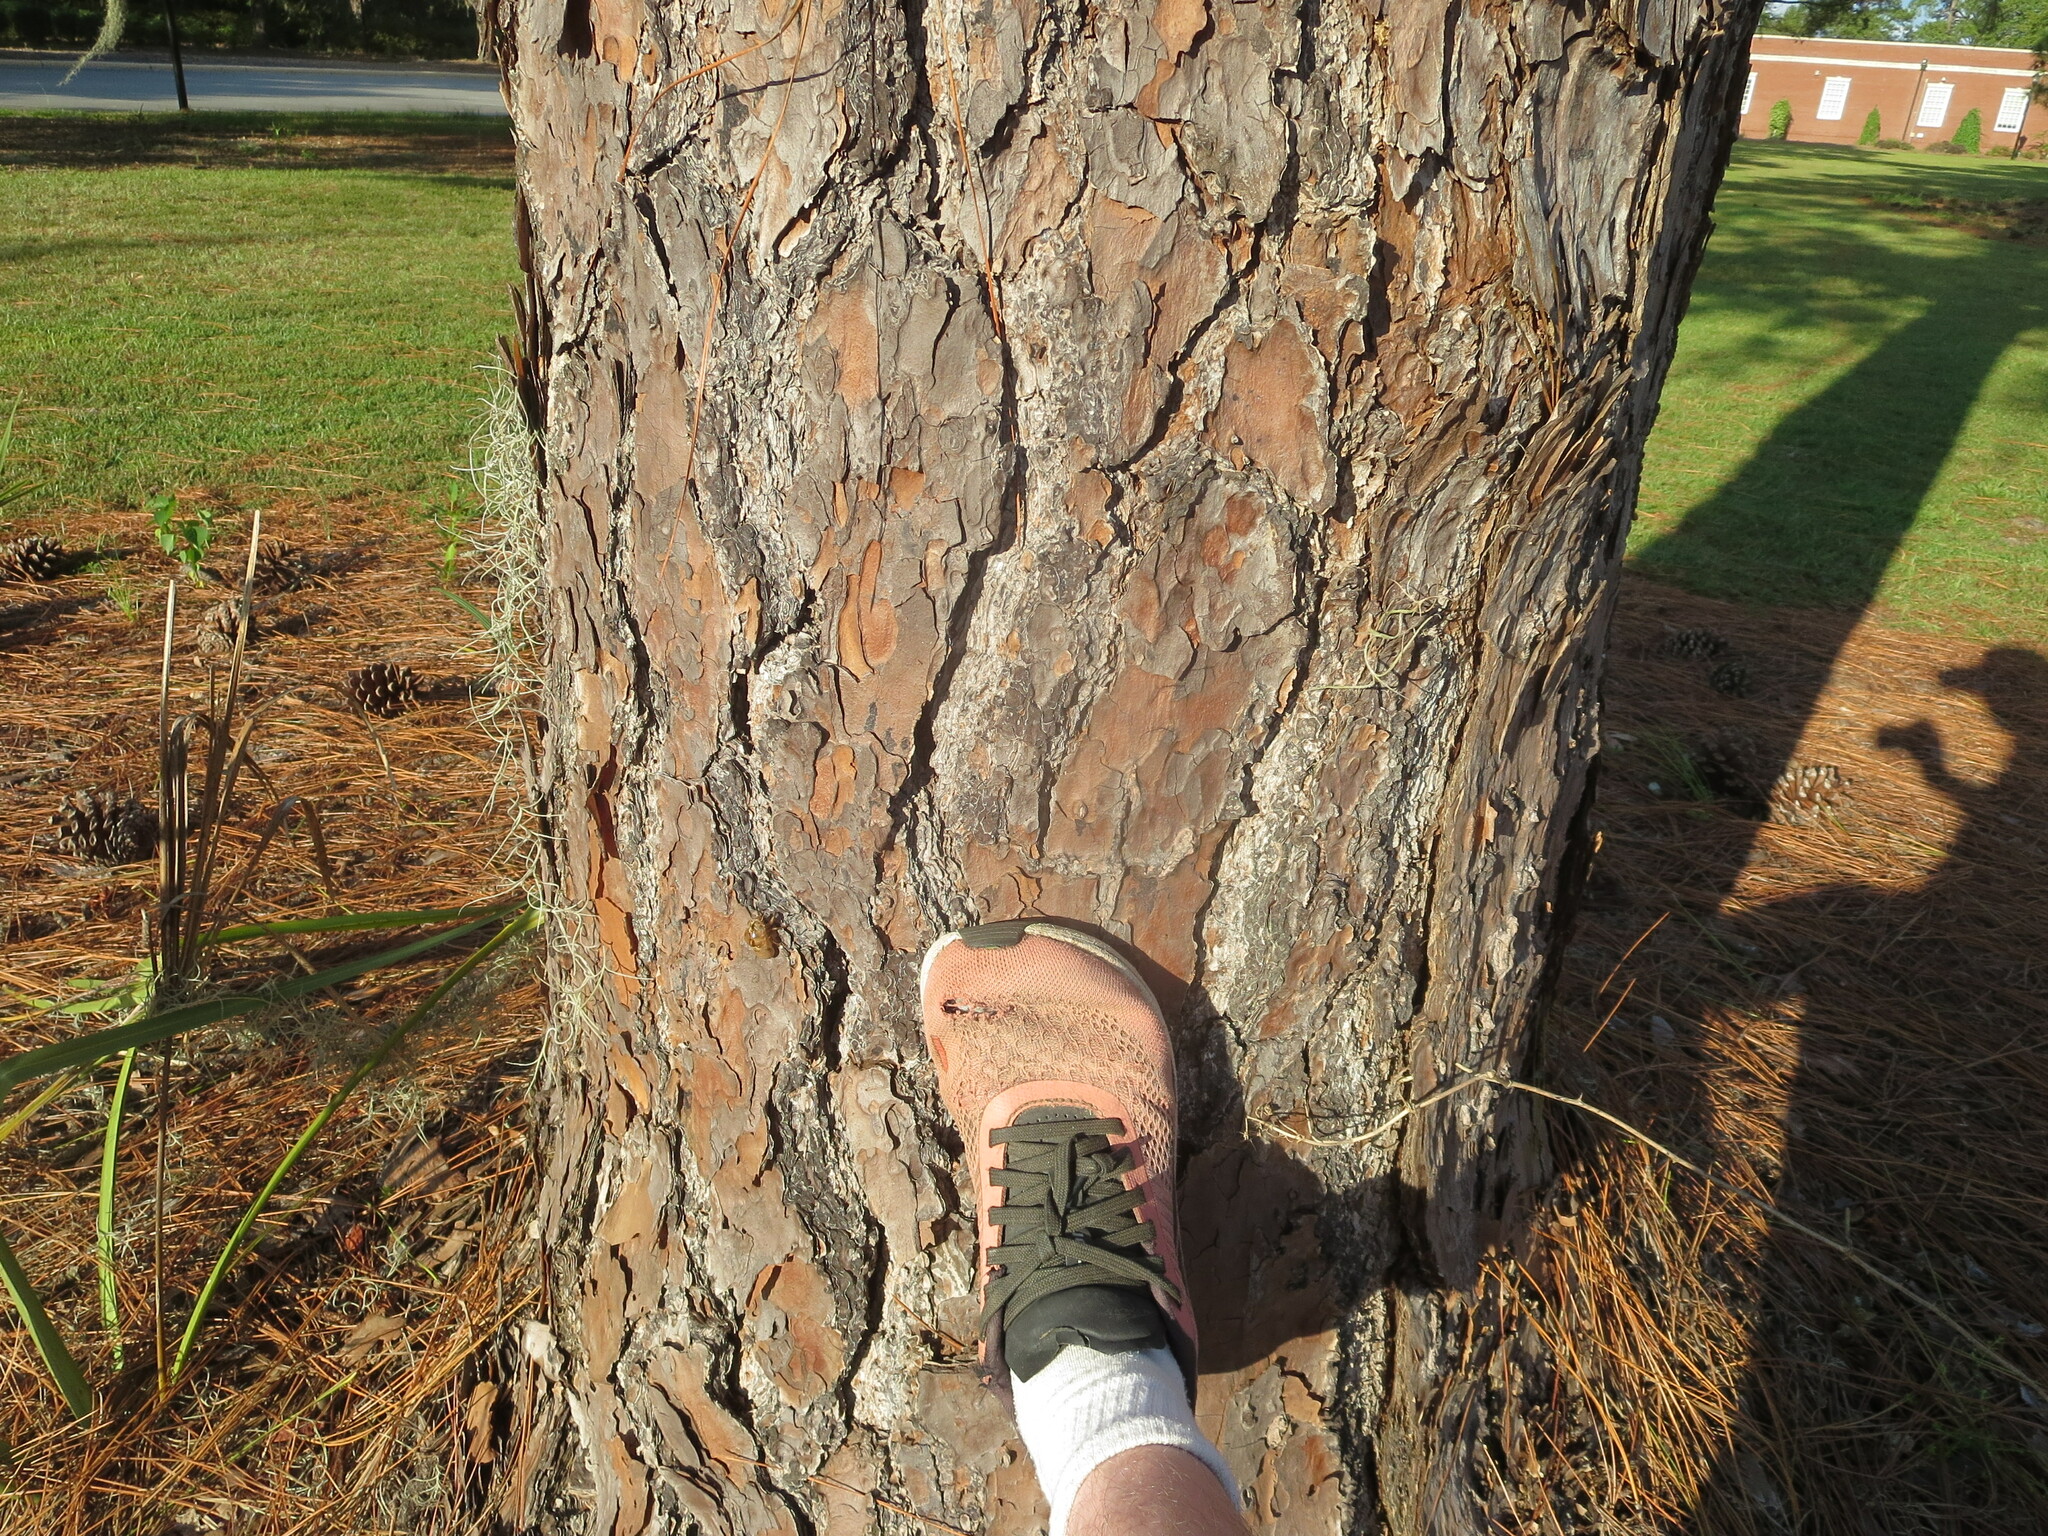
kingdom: Plantae
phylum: Tracheophyta
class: Pinopsida
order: Pinales
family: Pinaceae
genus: Pinus
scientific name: Pinus palustris
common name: Longleaf pine
